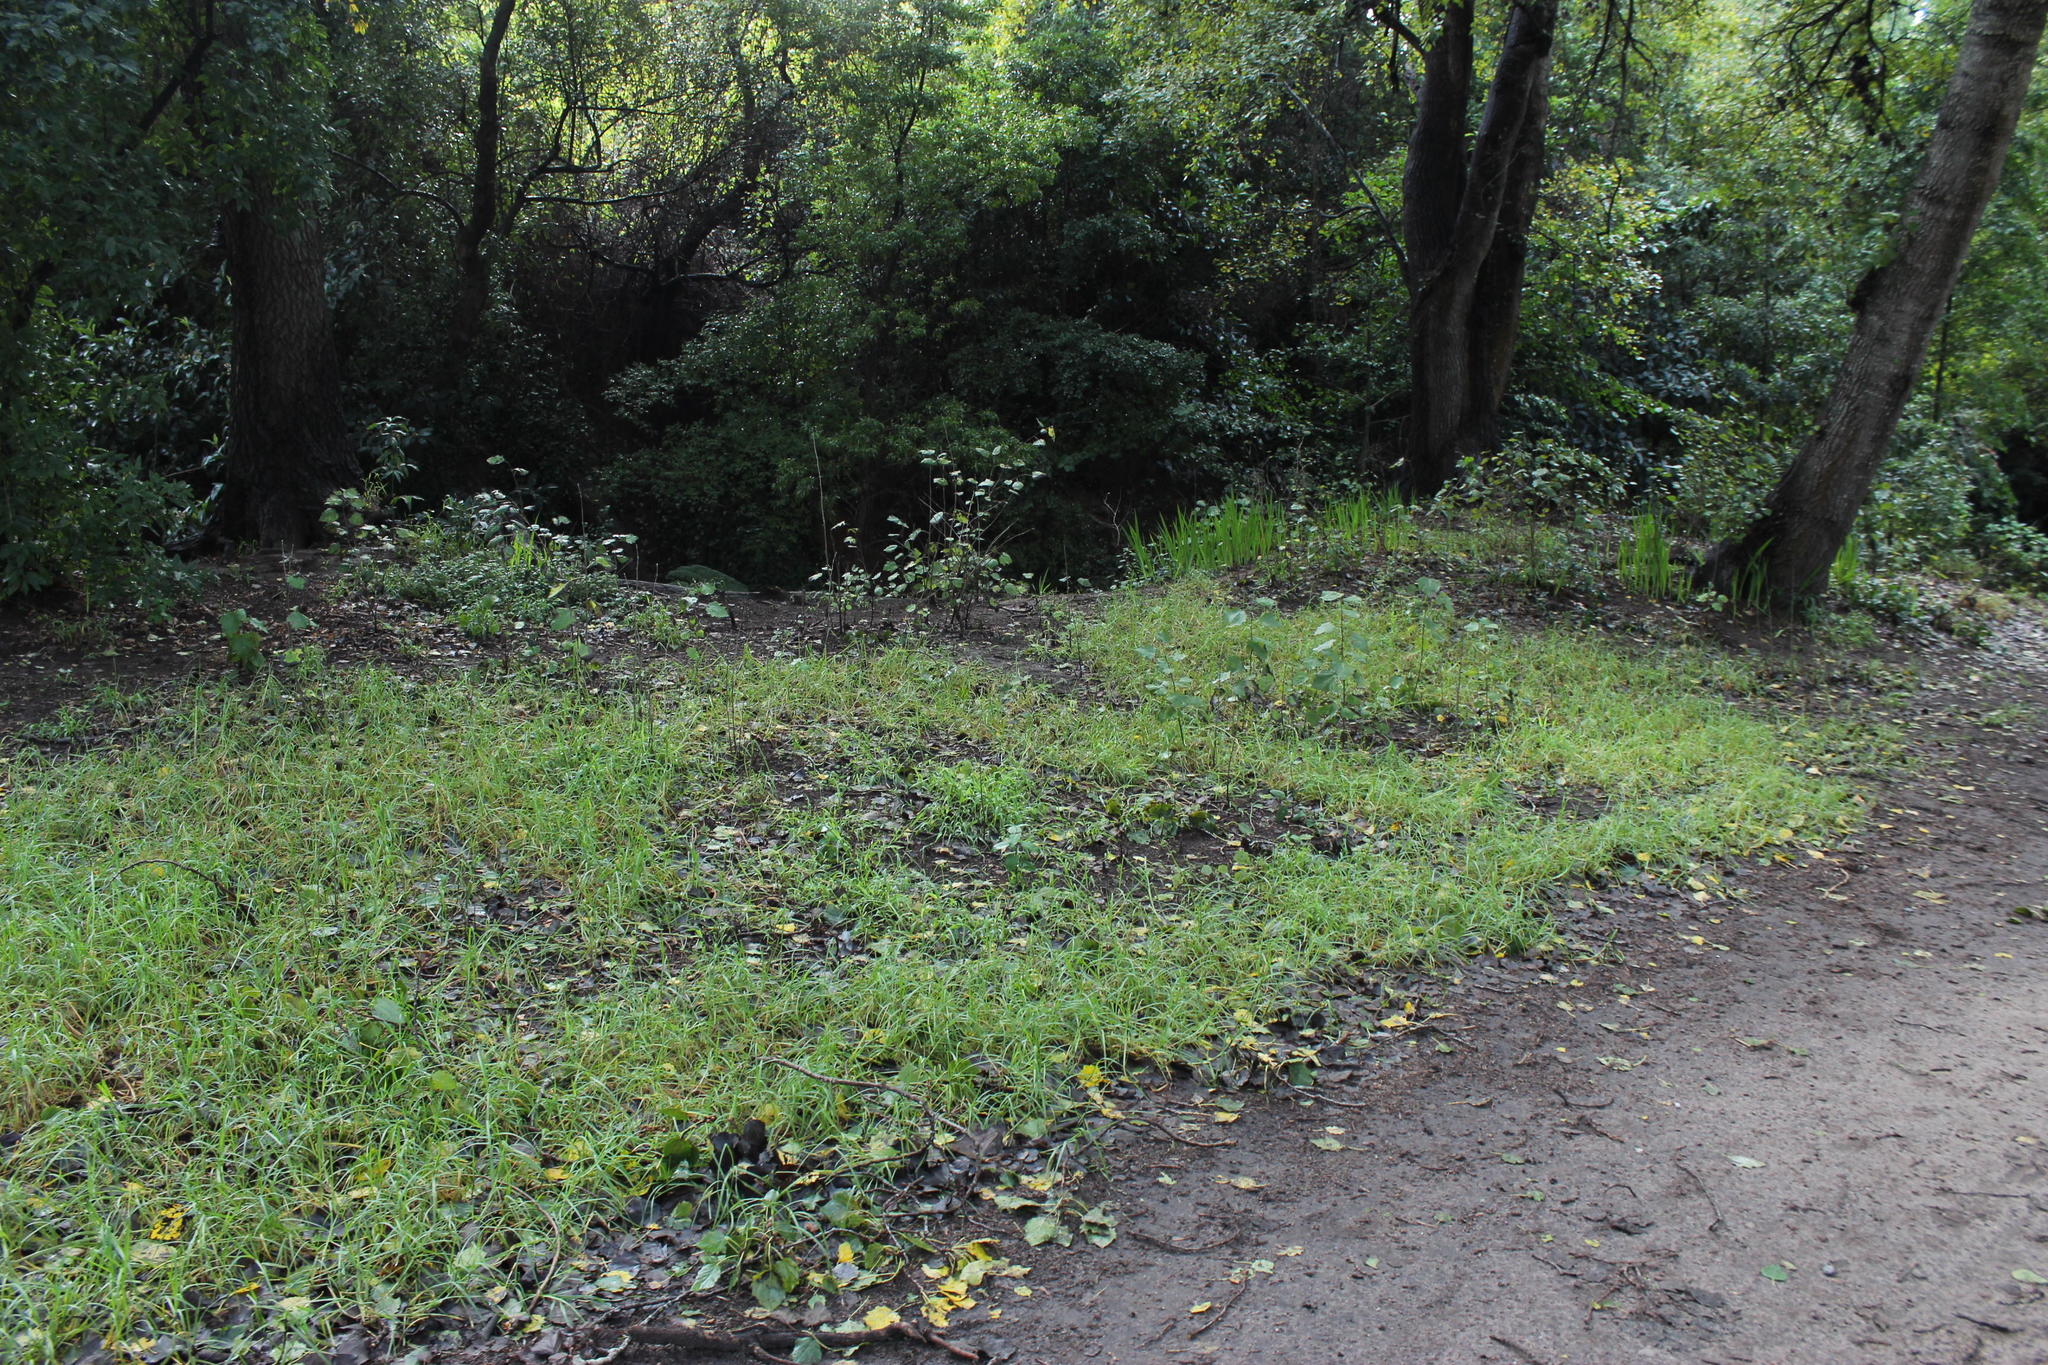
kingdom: Plantae
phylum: Tracheophyta
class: Magnoliopsida
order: Malpighiales
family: Salicaceae
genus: Populus
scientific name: Populus canescens
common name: Gray poplar
